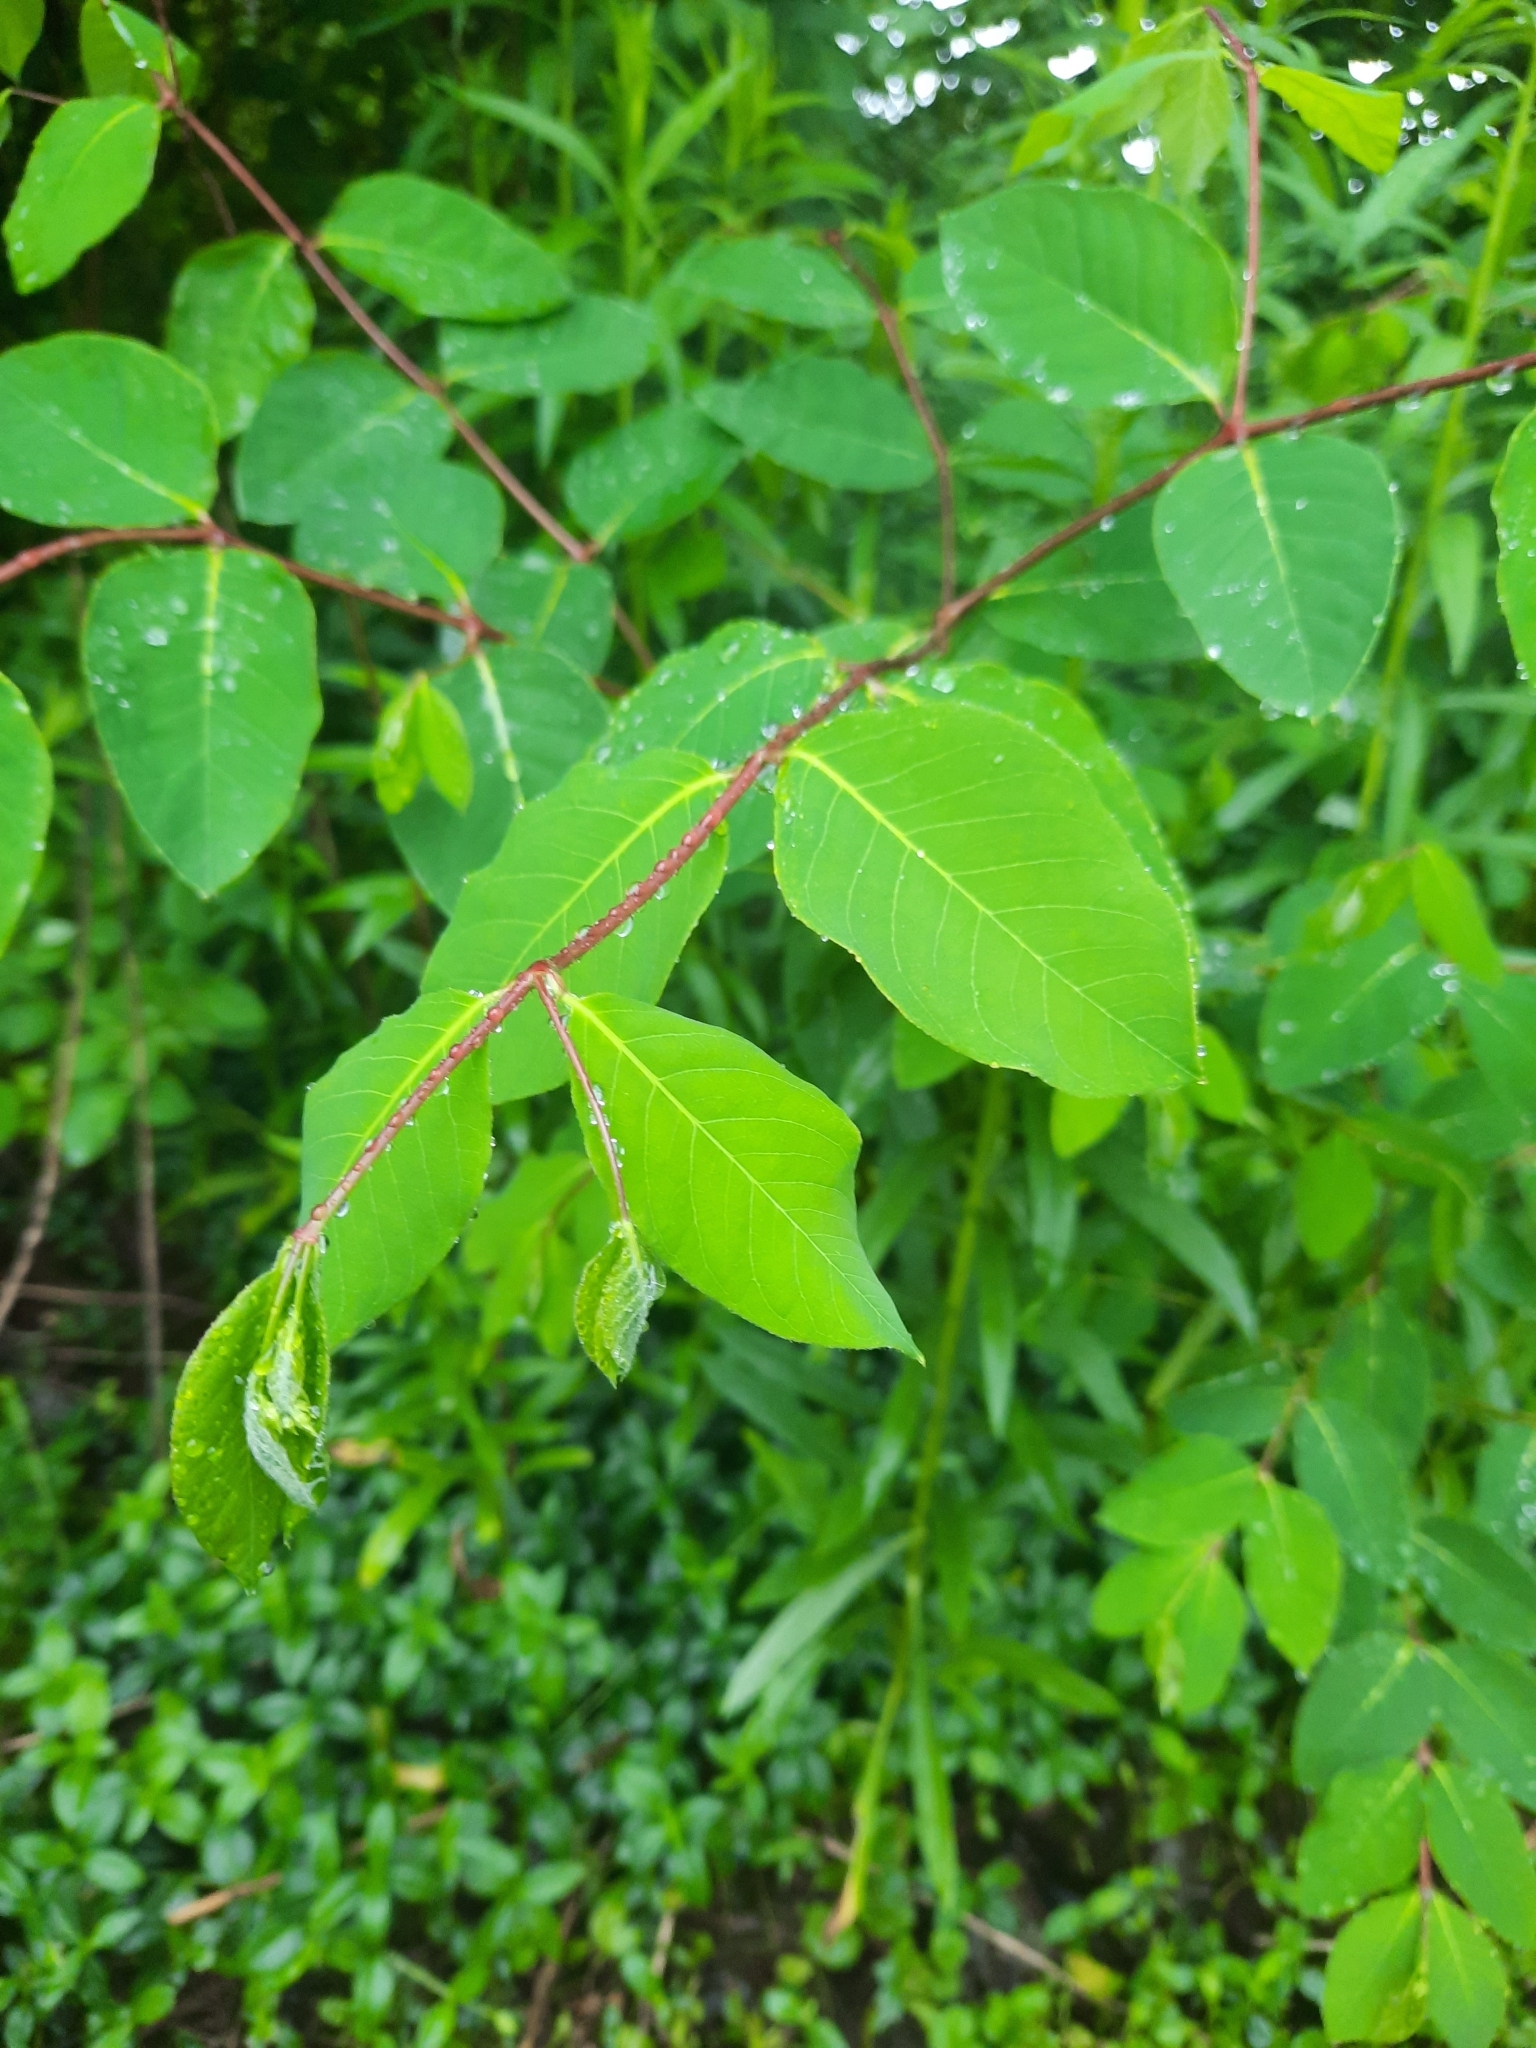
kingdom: Plantae
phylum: Tracheophyta
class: Magnoliopsida
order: Gentianales
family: Apocynaceae
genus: Apocynum
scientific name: Apocynum androsaemifolium
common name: Spreading dogbane
